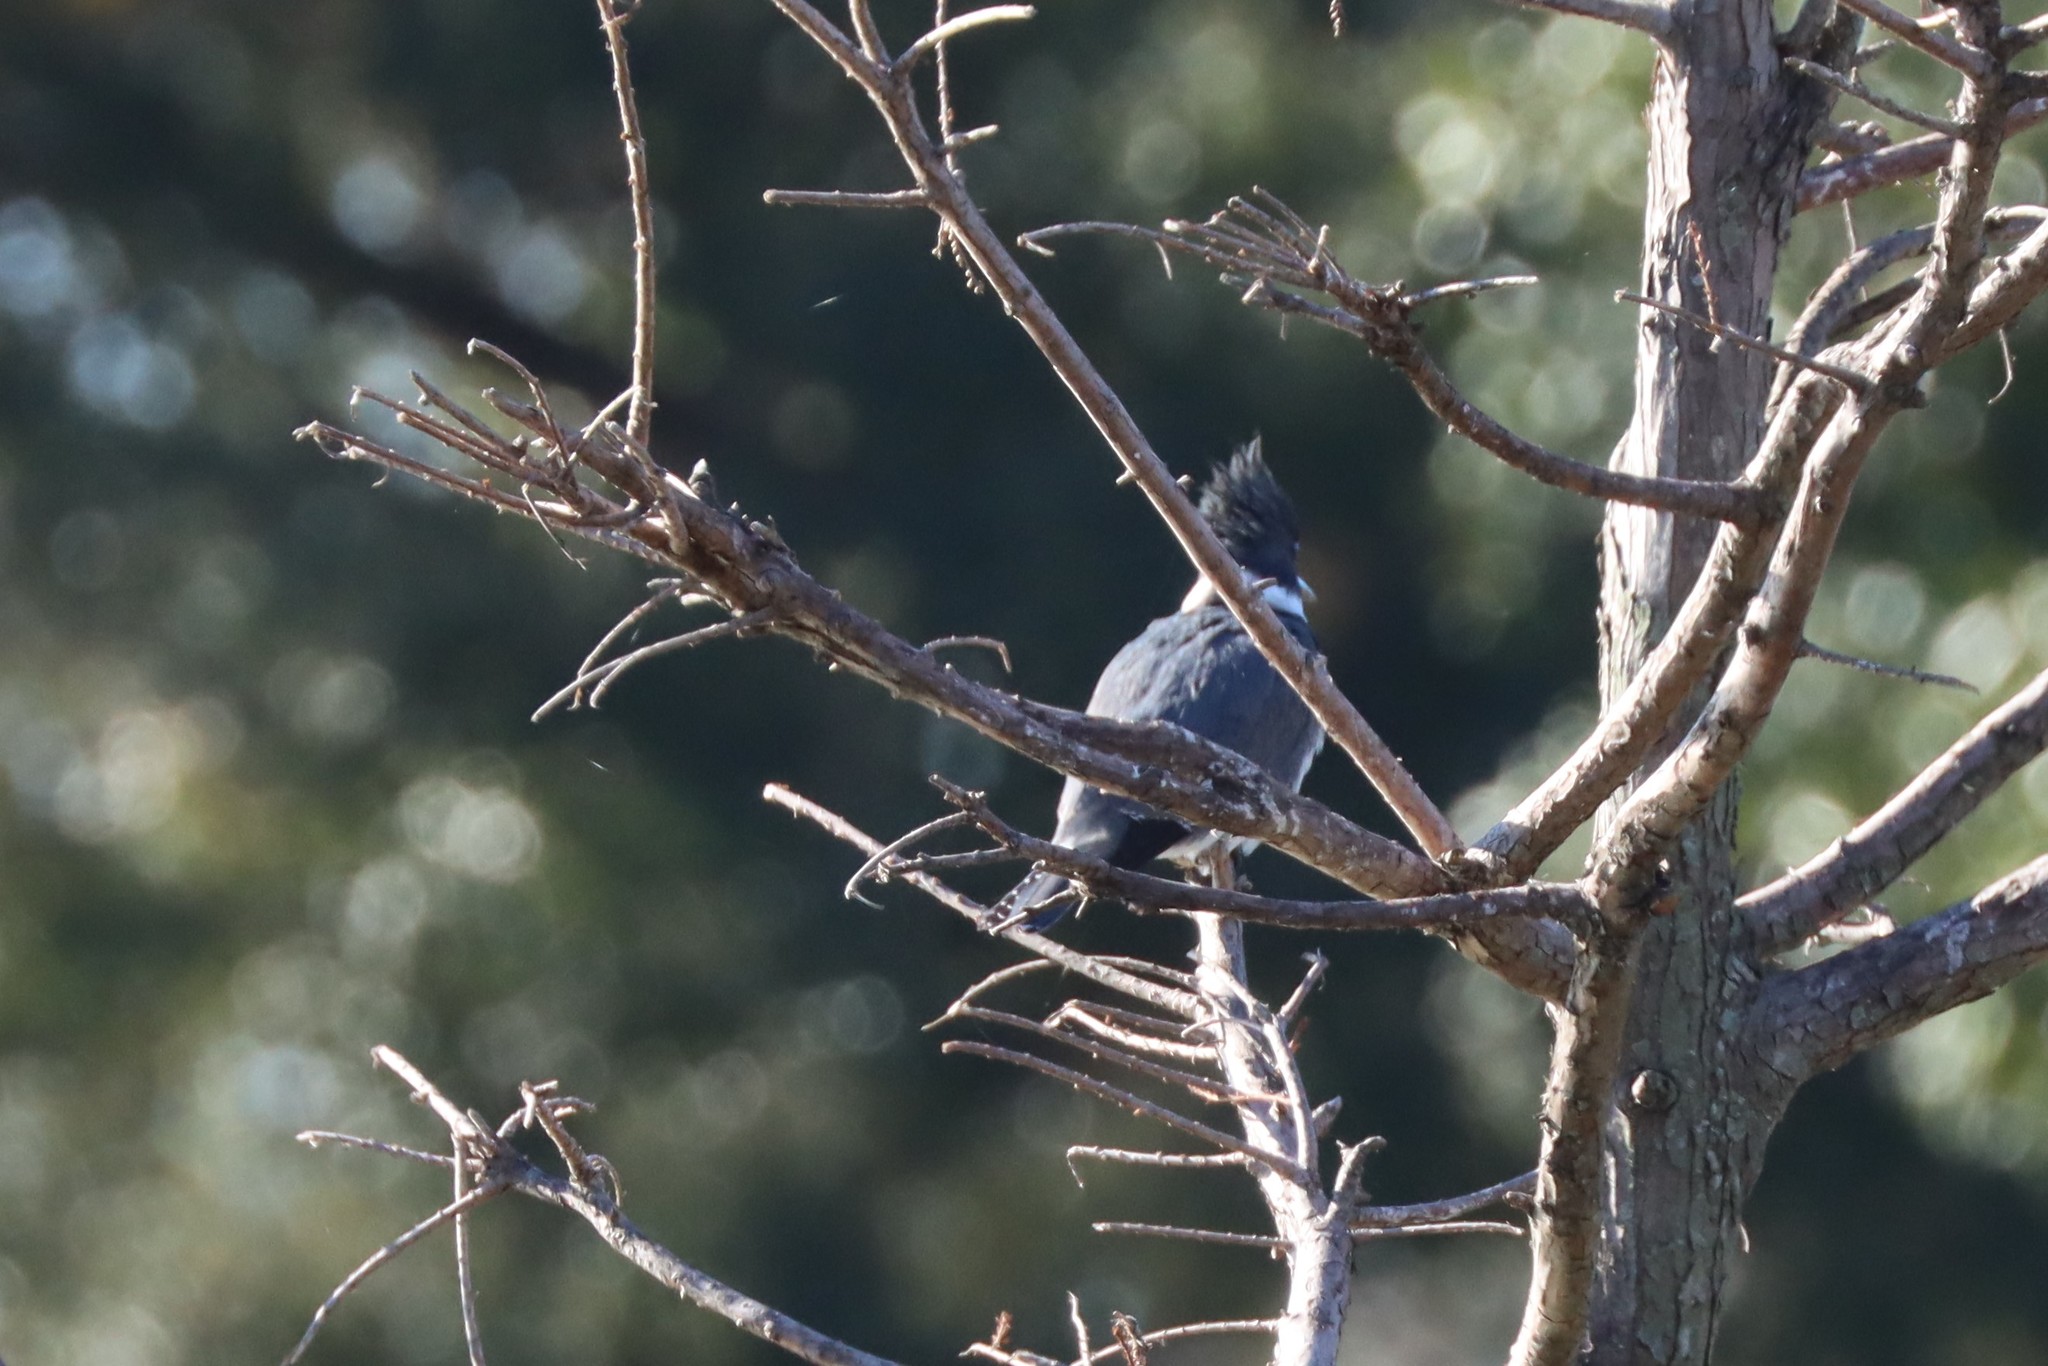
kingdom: Animalia
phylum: Chordata
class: Aves
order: Coraciiformes
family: Alcedinidae
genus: Megaceryle
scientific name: Megaceryle alcyon
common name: Belted kingfisher
